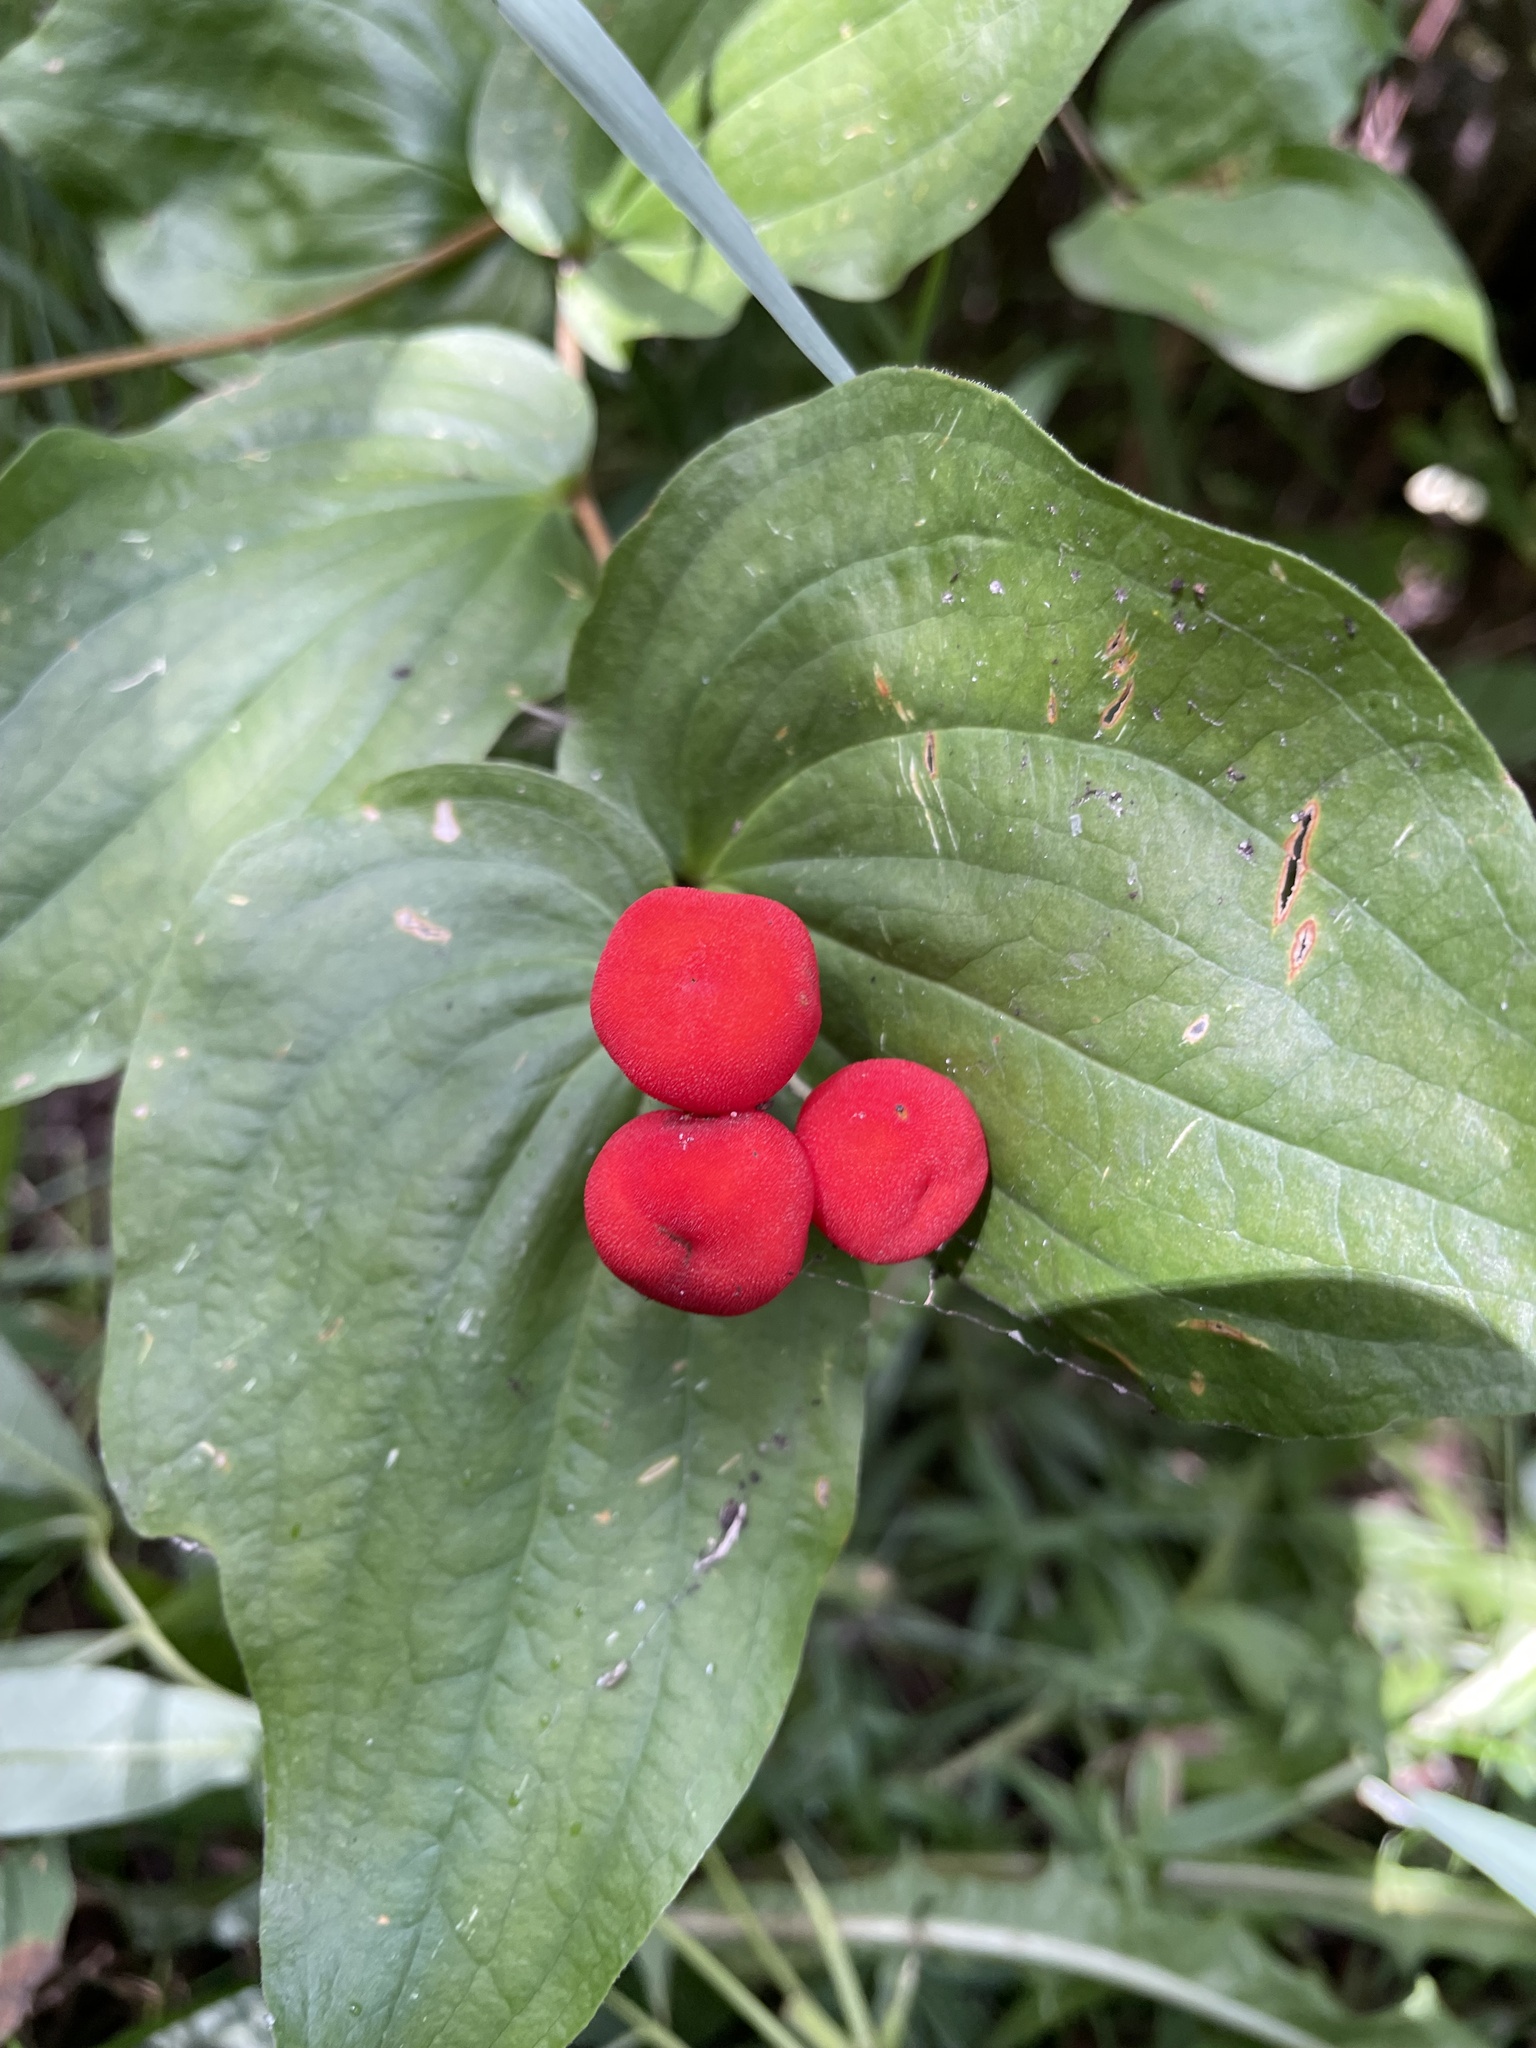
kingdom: Plantae
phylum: Tracheophyta
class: Liliopsida
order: Liliales
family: Liliaceae
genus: Prosartes
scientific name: Prosartes trachycarpa
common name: Rough-fruit fairy-bells
